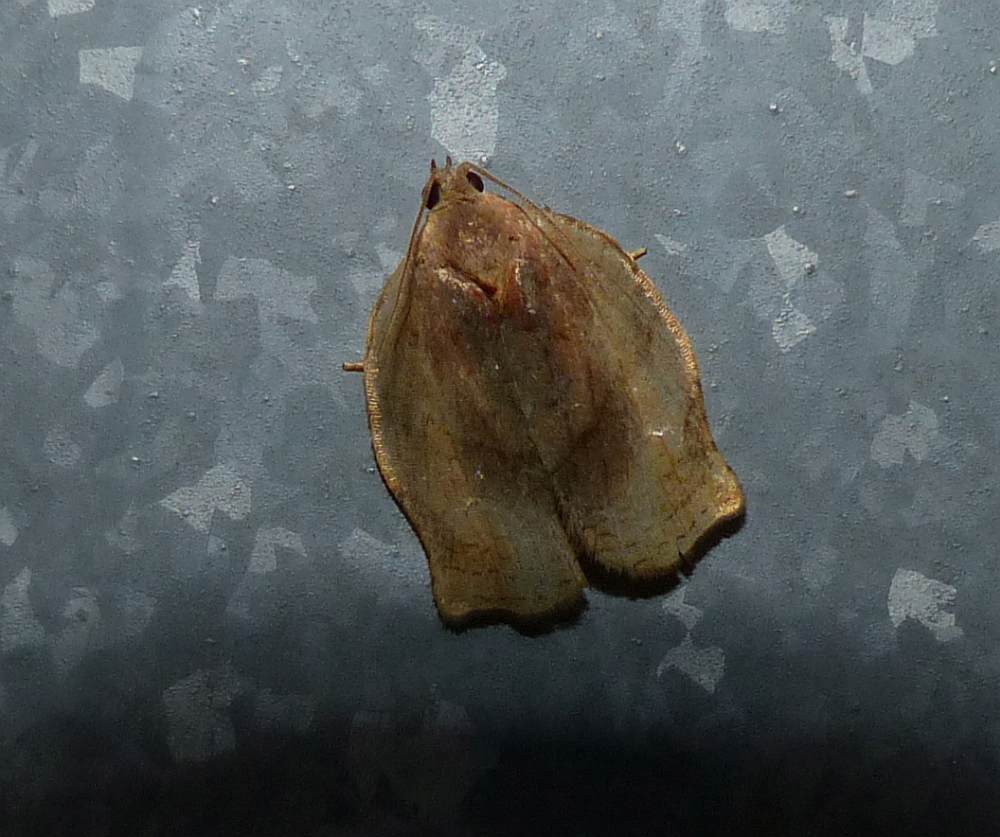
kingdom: Animalia
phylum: Arthropoda
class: Insecta
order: Lepidoptera
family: Tortricidae
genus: Archips
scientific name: Archips purpurana
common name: Omnivorous leafroller
